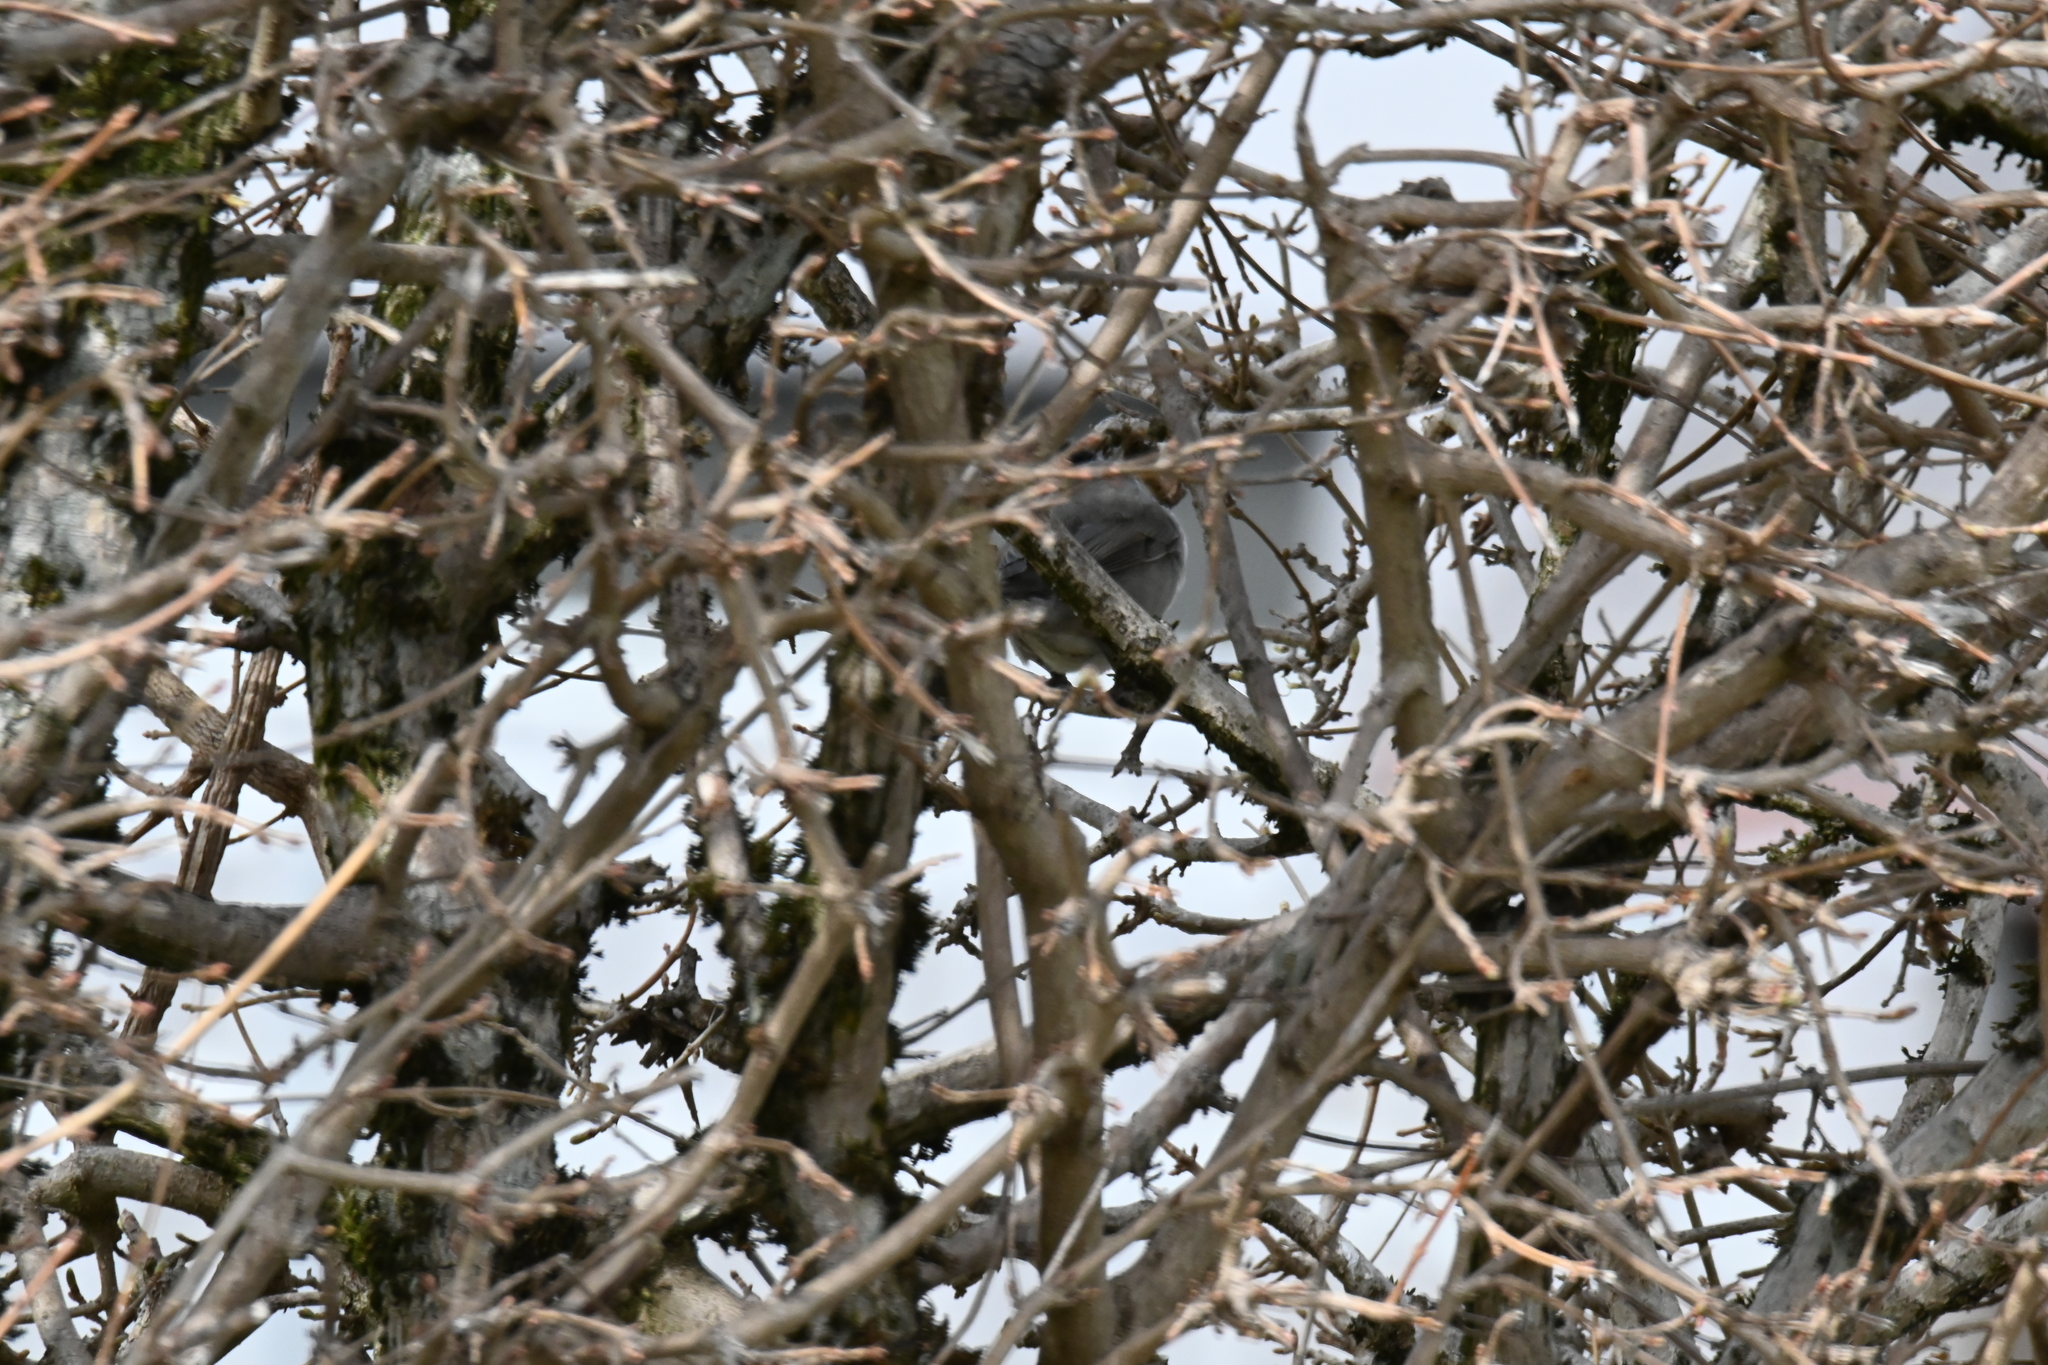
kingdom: Animalia
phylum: Chordata
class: Aves
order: Passeriformes
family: Sylviidae
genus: Sylvia
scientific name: Sylvia atricapilla
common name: Eurasian blackcap
